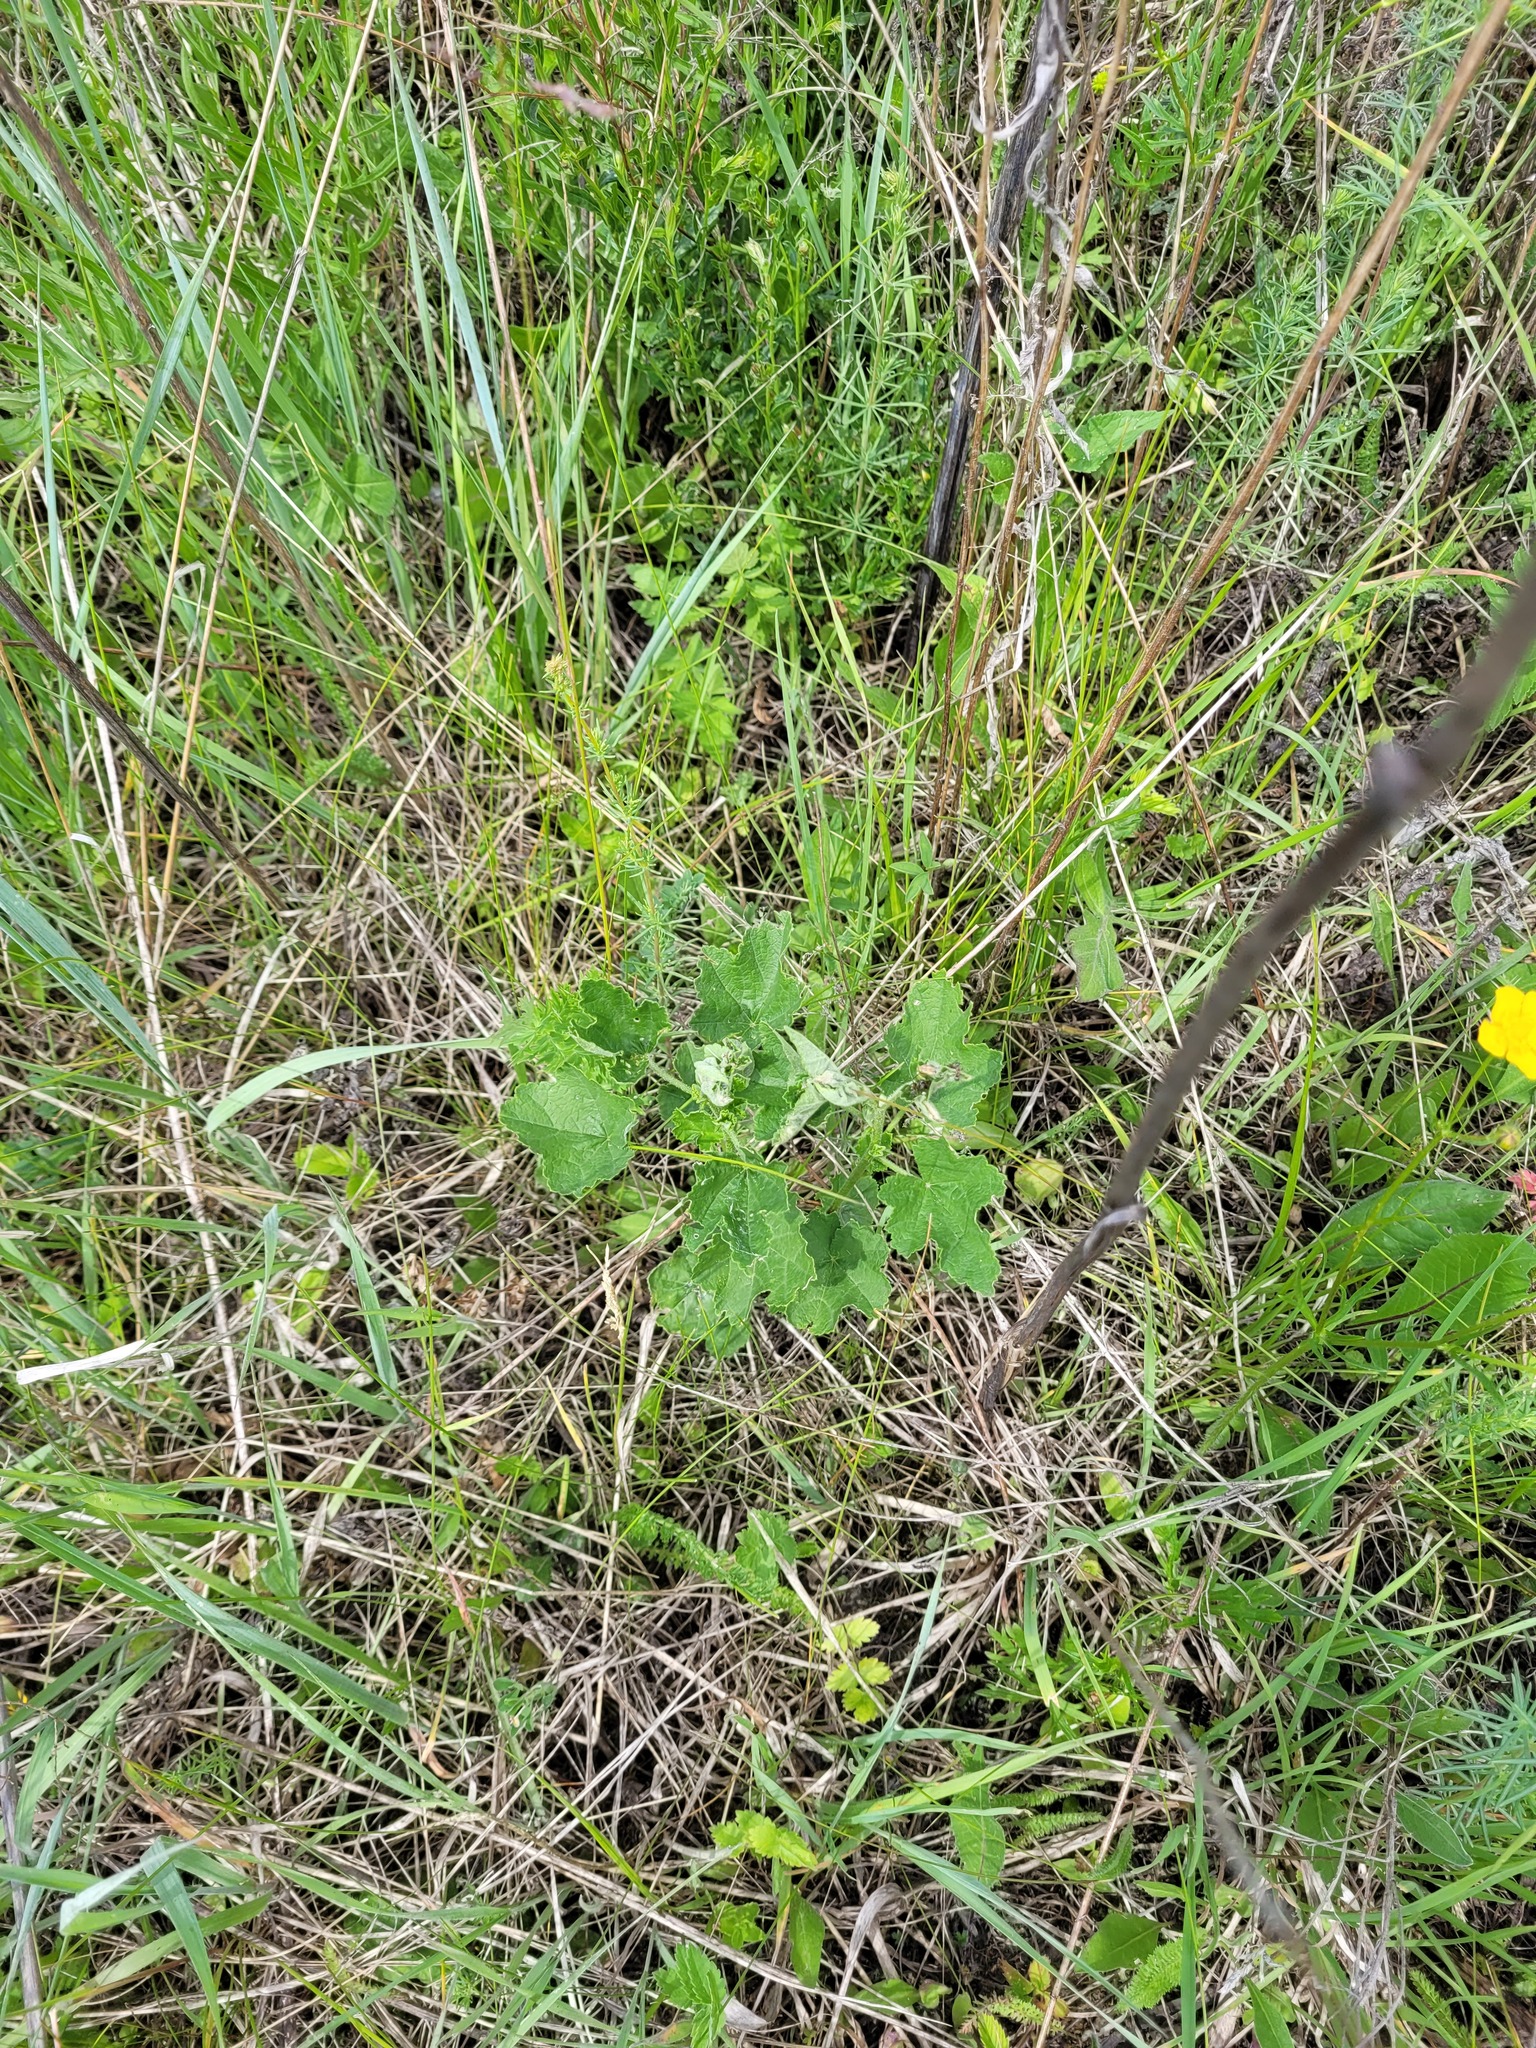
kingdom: Plantae
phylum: Tracheophyta
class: Magnoliopsida
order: Malvales
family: Malvaceae
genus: Malva
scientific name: Malva thuringiaca
